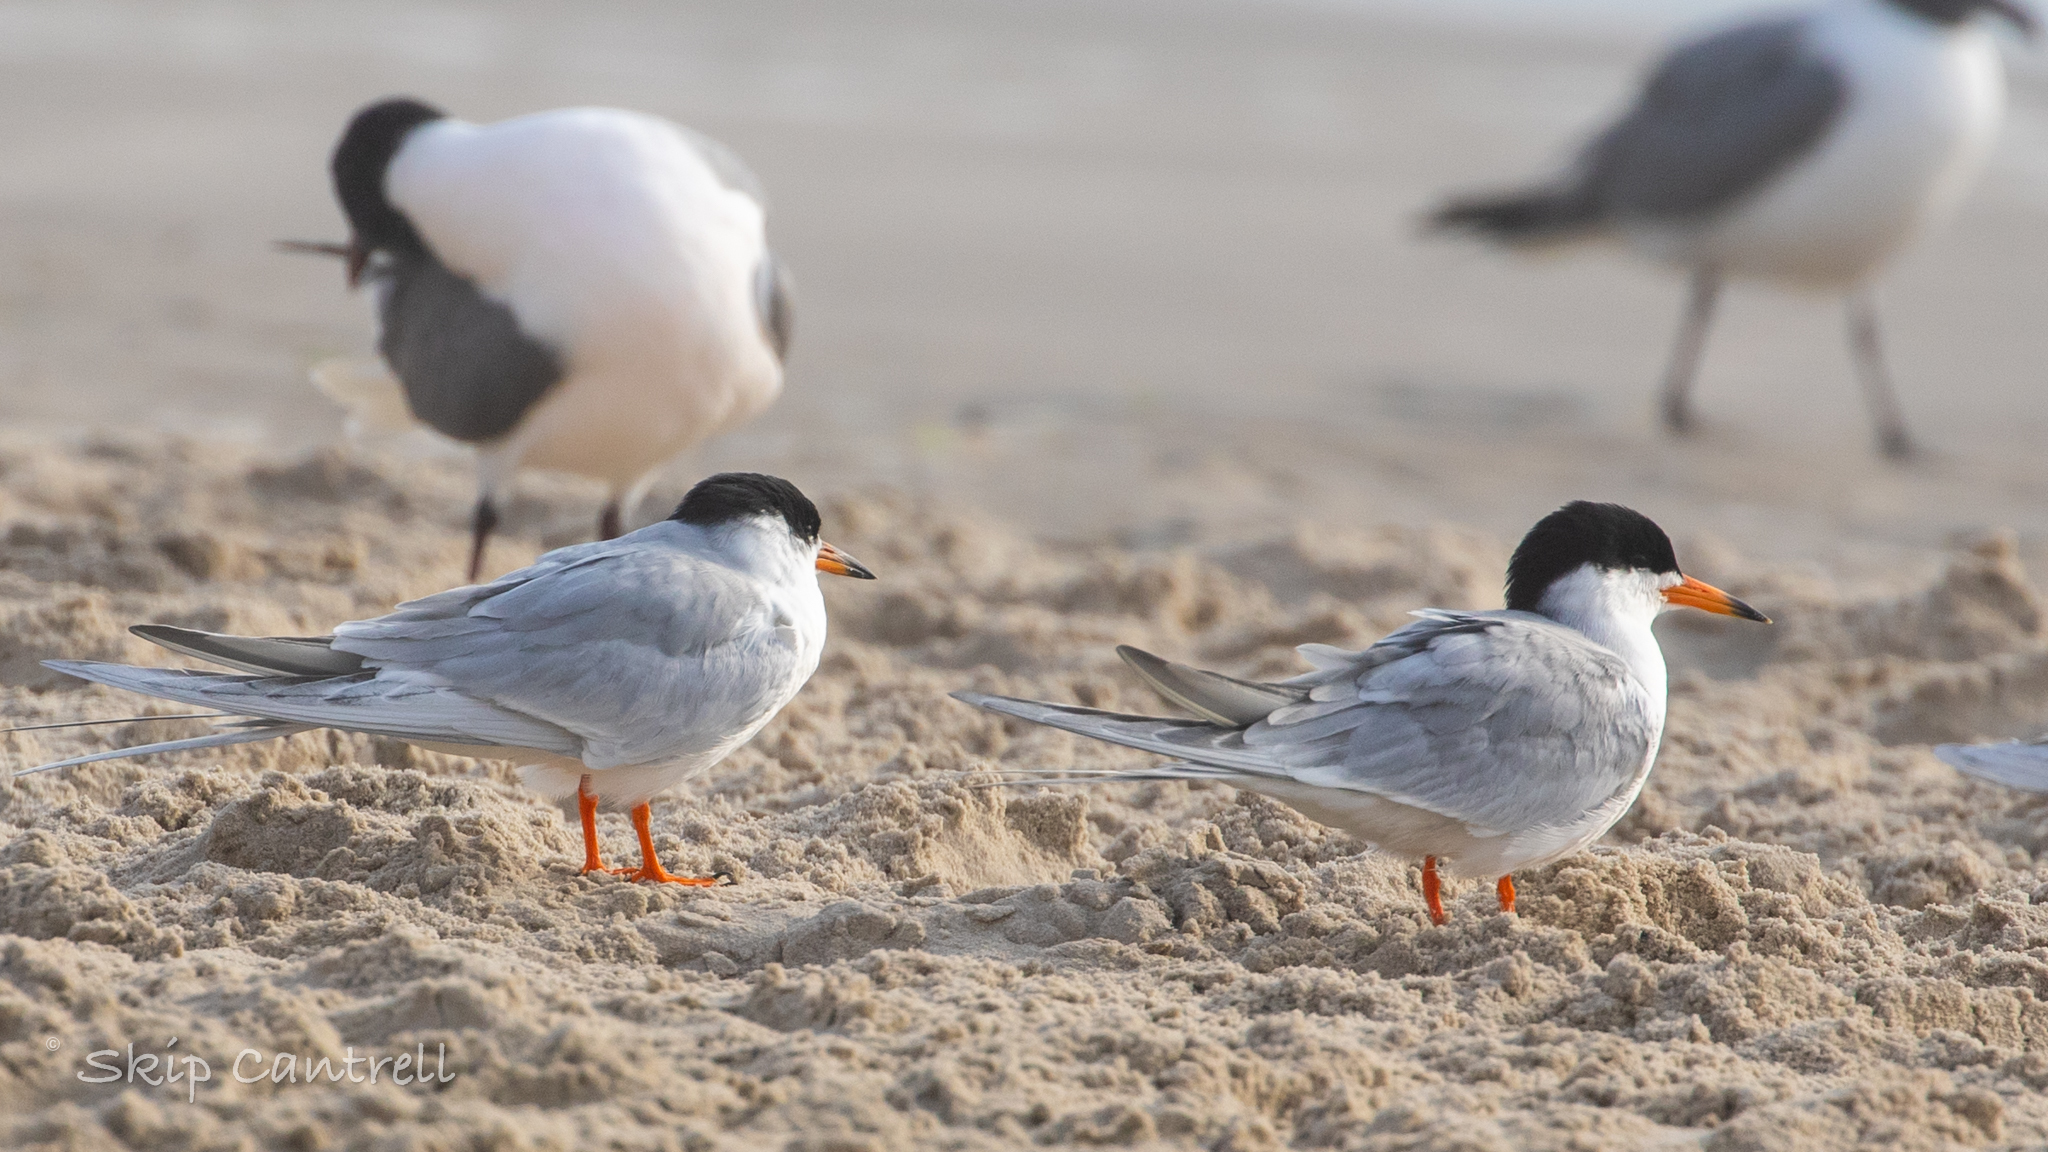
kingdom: Animalia
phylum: Chordata
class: Aves
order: Charadriiformes
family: Laridae
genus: Sterna
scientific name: Sterna forsteri
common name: Forster's tern
